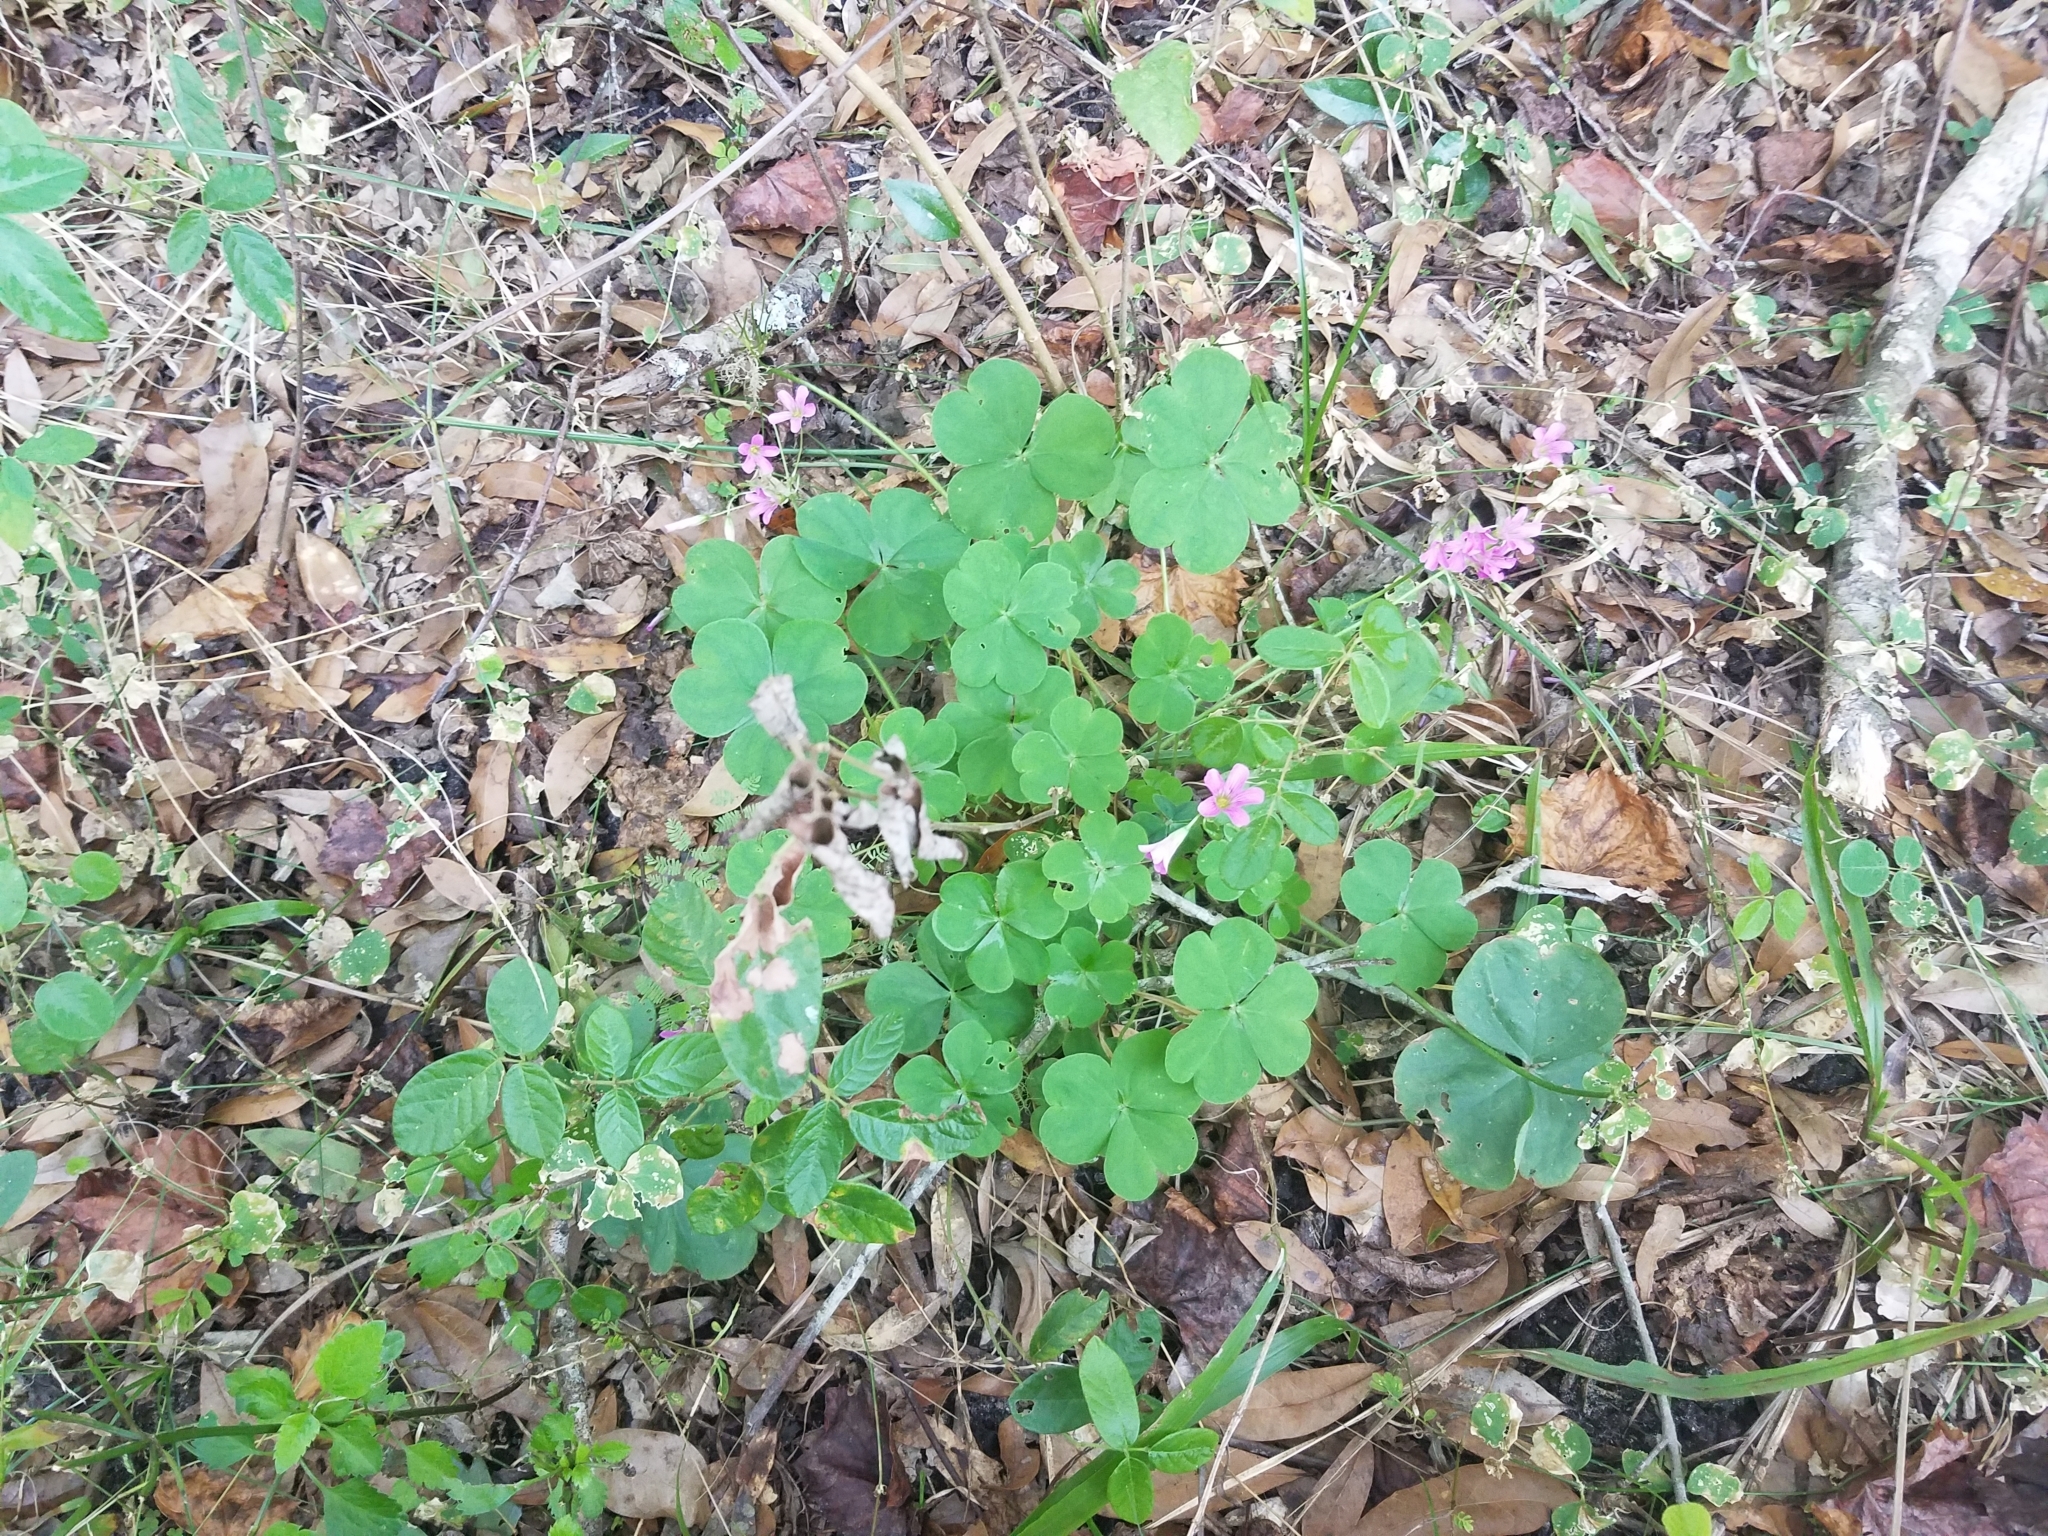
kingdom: Plantae
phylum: Tracheophyta
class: Magnoliopsida
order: Oxalidales
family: Oxalidaceae
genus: Oxalis
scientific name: Oxalis debilis
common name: Large-flowered pink-sorrel
